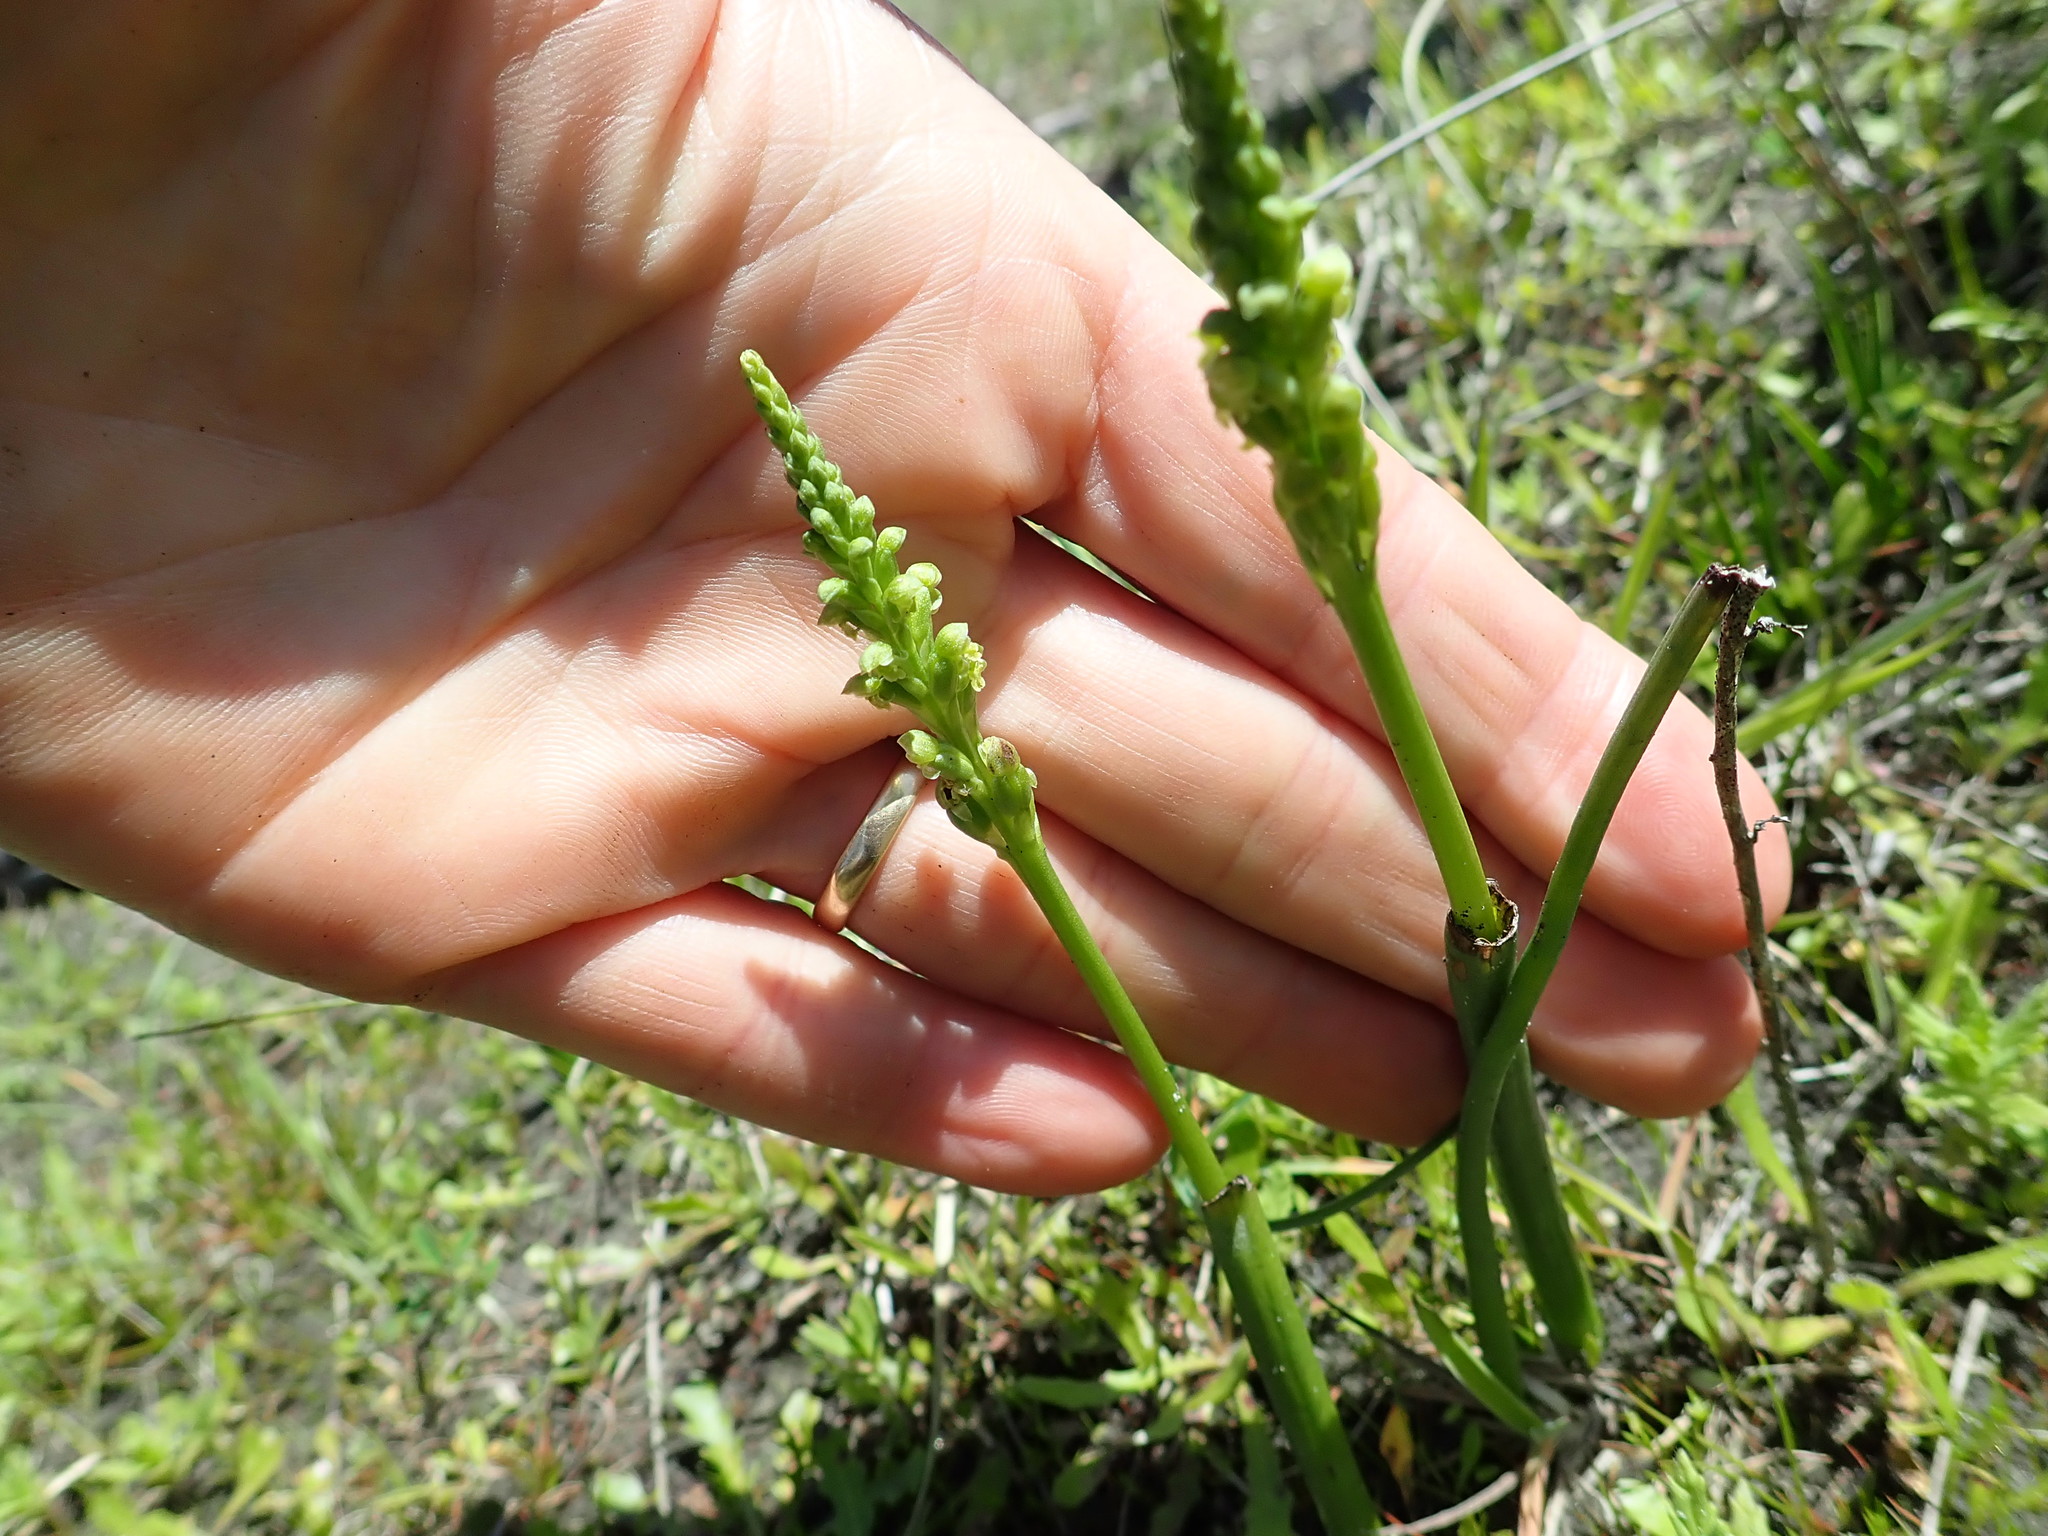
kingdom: Plantae
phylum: Tracheophyta
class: Liliopsida
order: Asparagales
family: Orchidaceae
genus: Microtis
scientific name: Microtis unifolia
